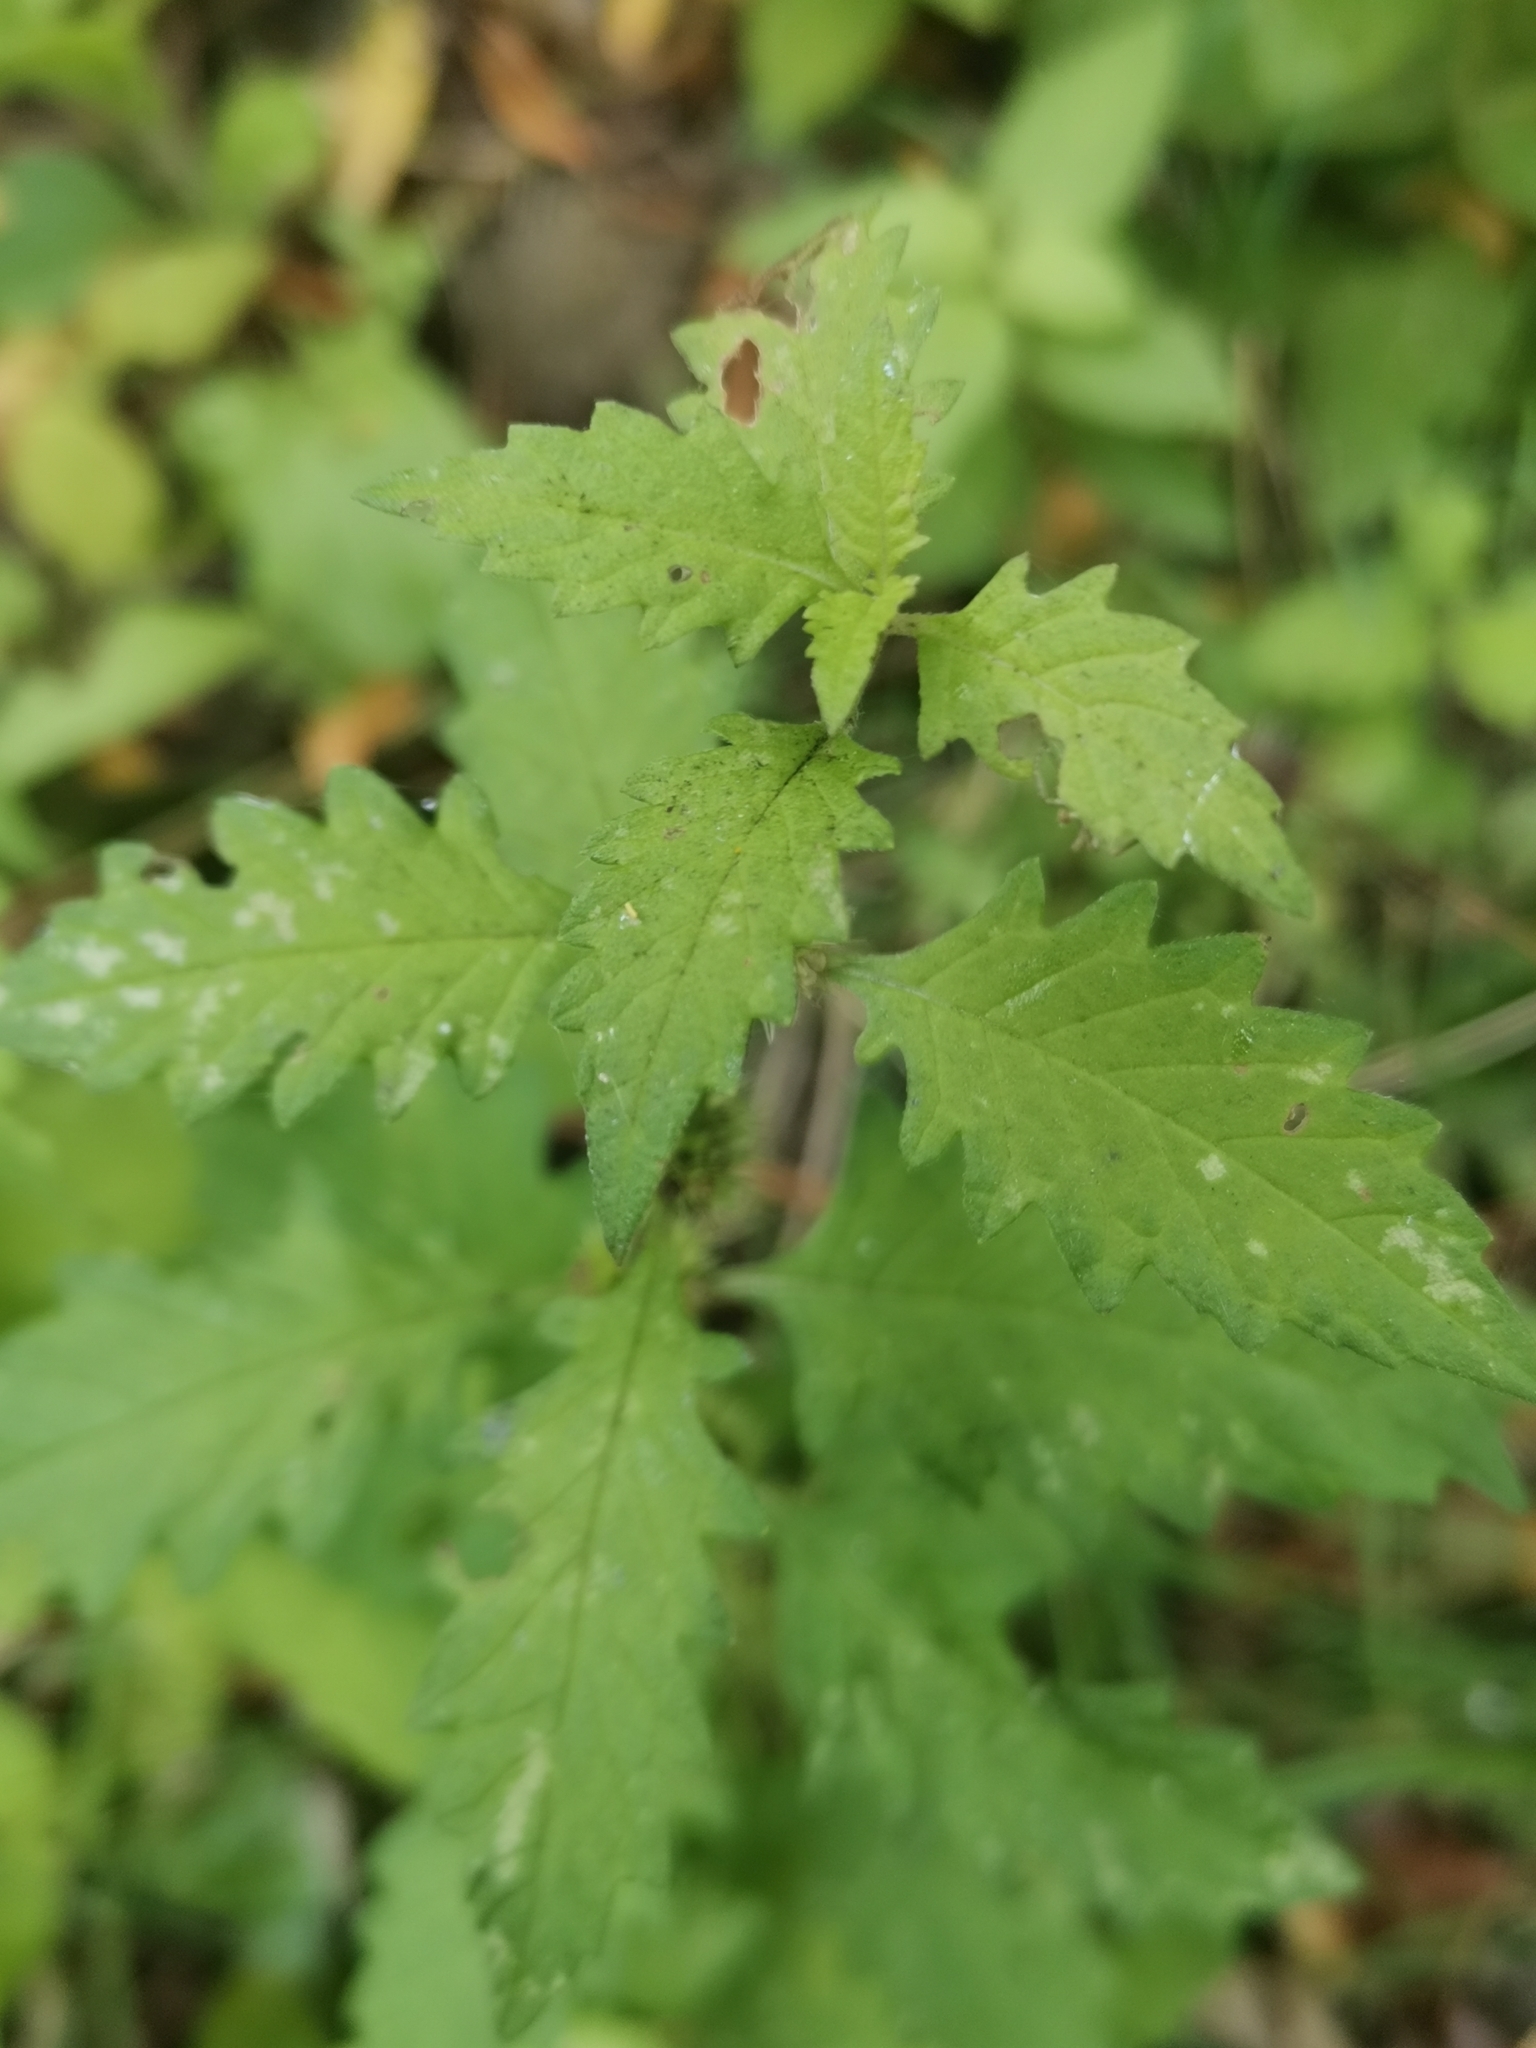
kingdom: Plantae
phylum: Tracheophyta
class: Magnoliopsida
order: Lamiales
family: Lamiaceae
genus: Lycopus
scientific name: Lycopus europaeus
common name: European bugleweed
